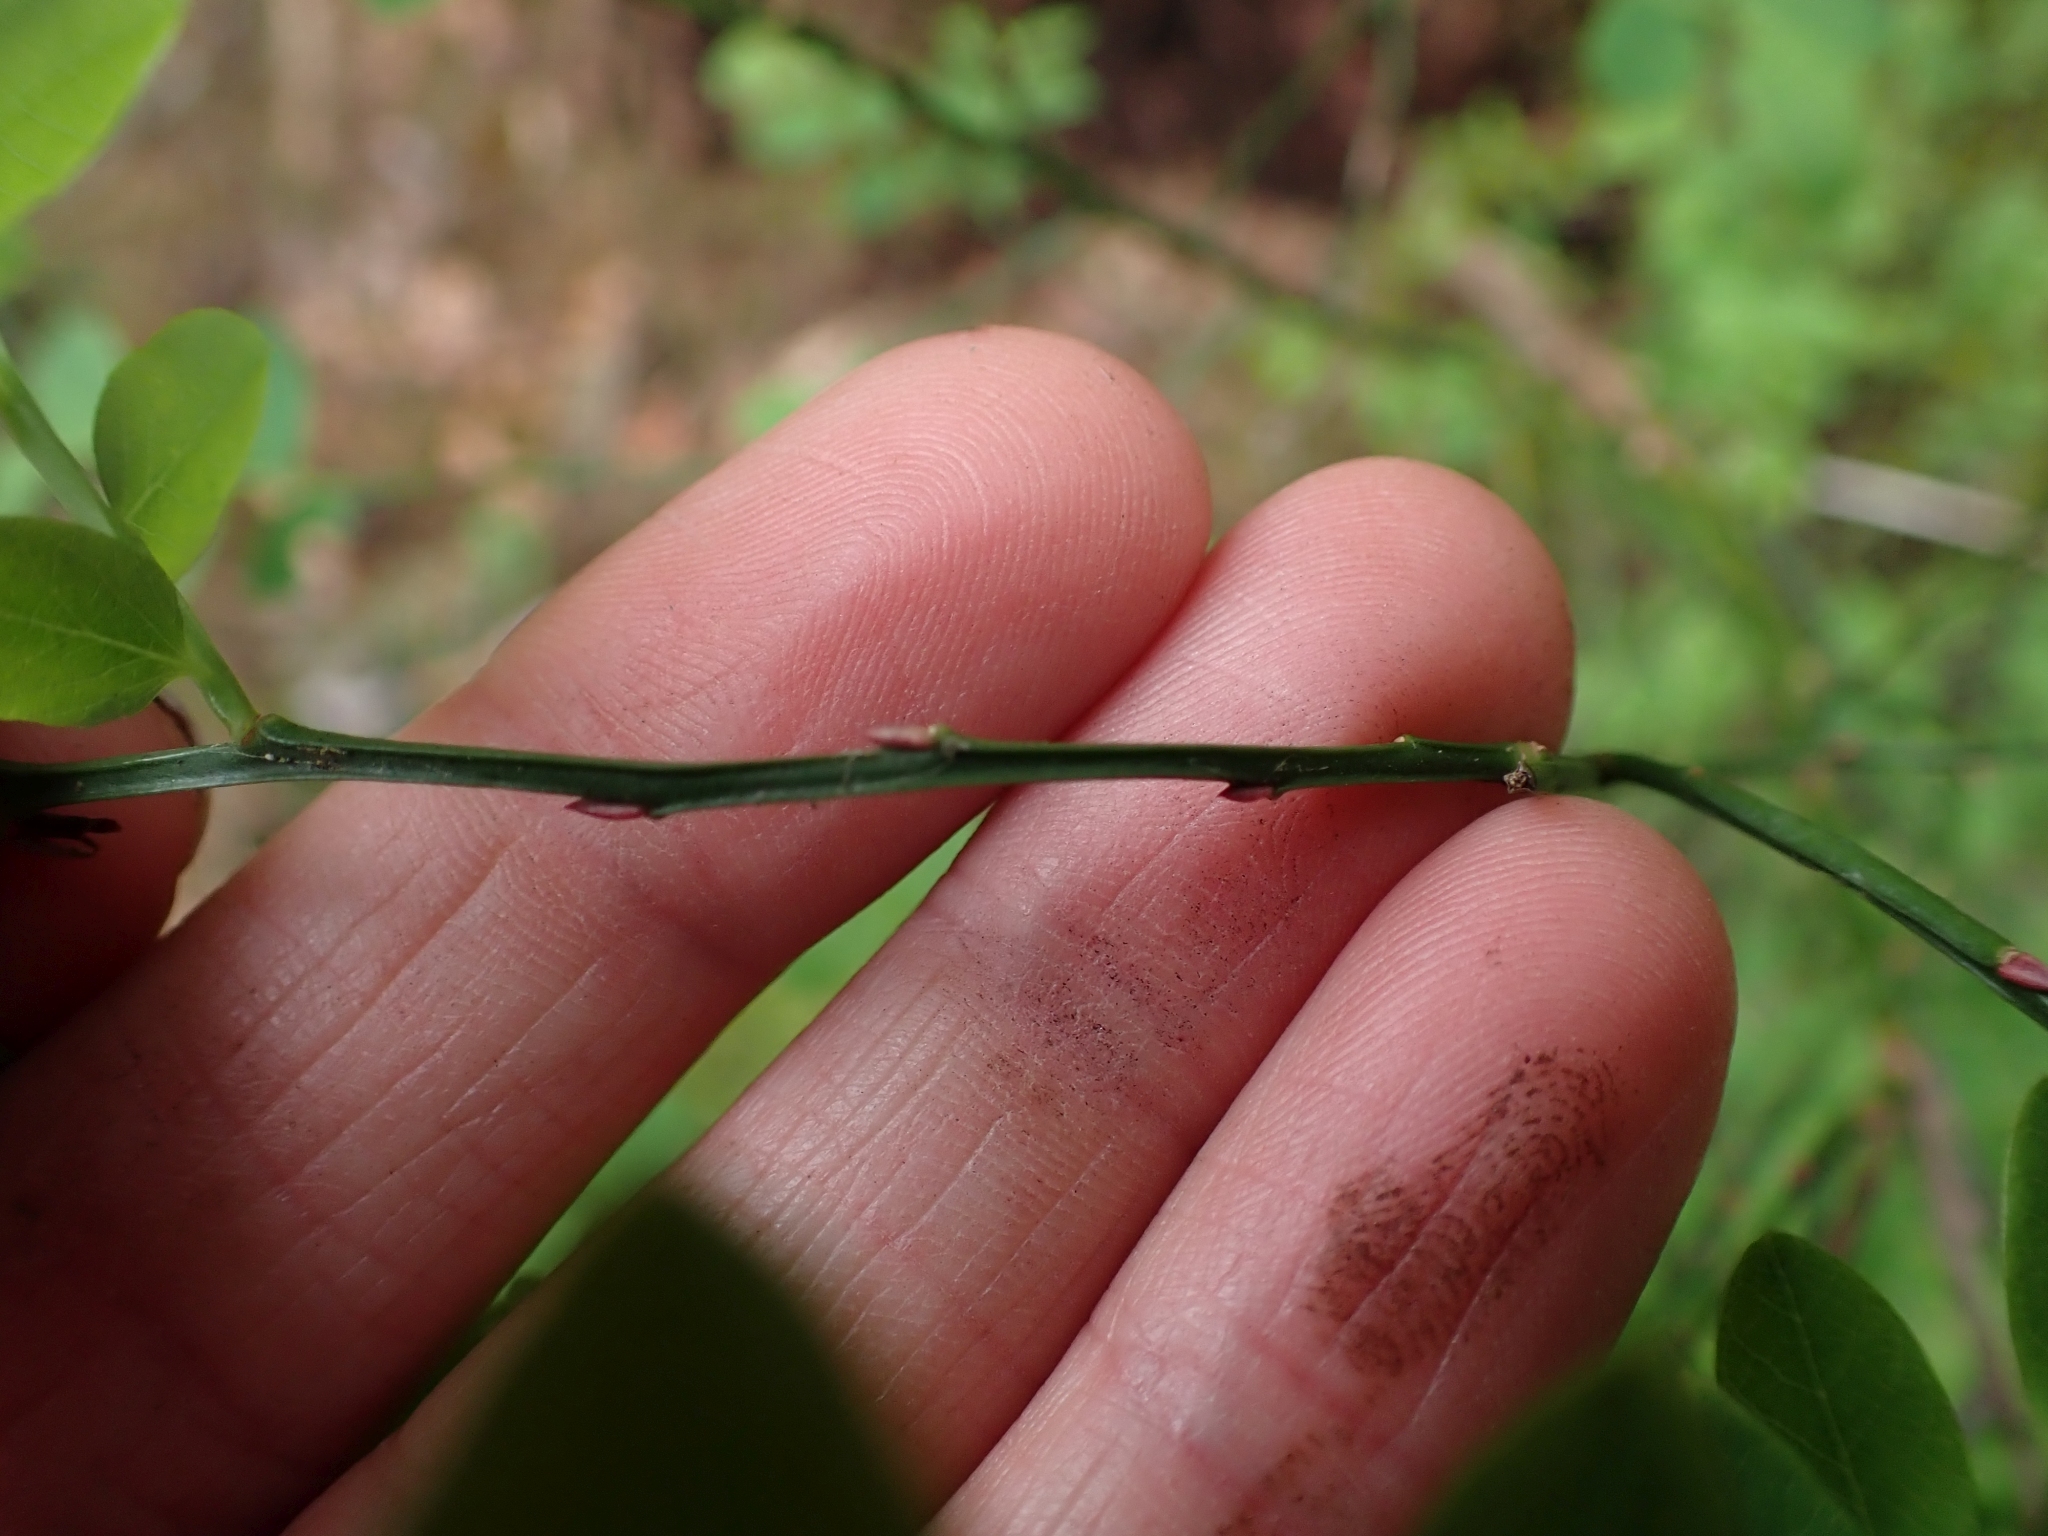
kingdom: Plantae
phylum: Tracheophyta
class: Magnoliopsida
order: Ericales
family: Ericaceae
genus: Vaccinium
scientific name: Vaccinium parvifolium
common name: Red-huckleberry
